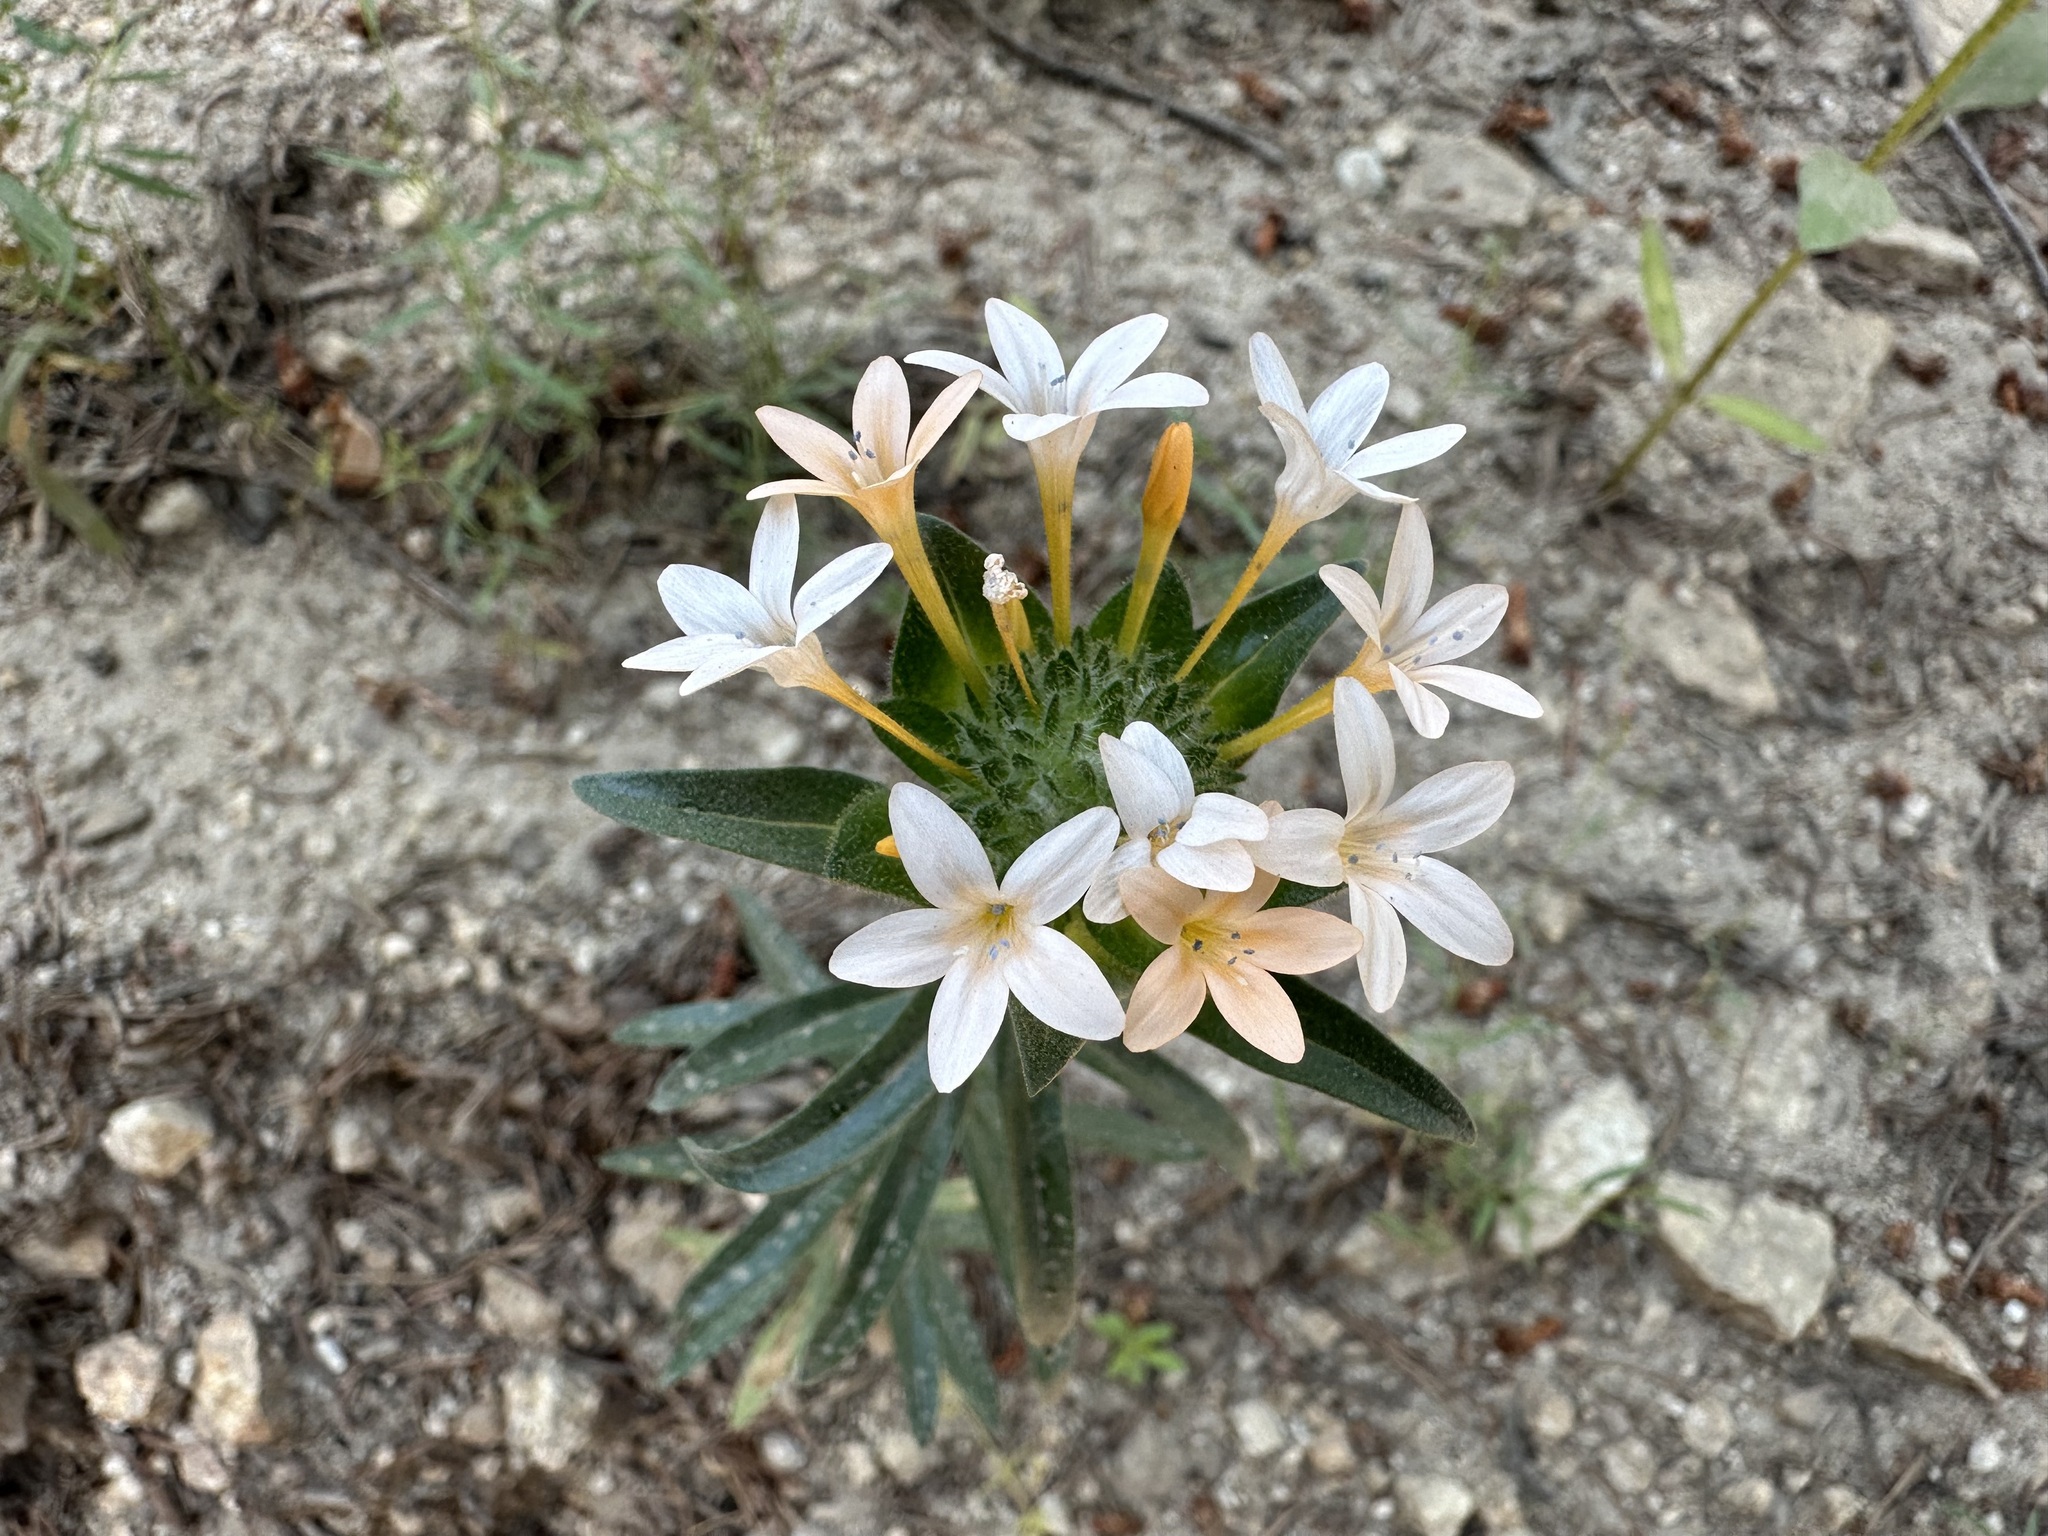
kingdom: Plantae
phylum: Tracheophyta
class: Magnoliopsida
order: Ericales
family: Polemoniaceae
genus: Collomia
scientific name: Collomia grandiflora
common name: California strawflower
